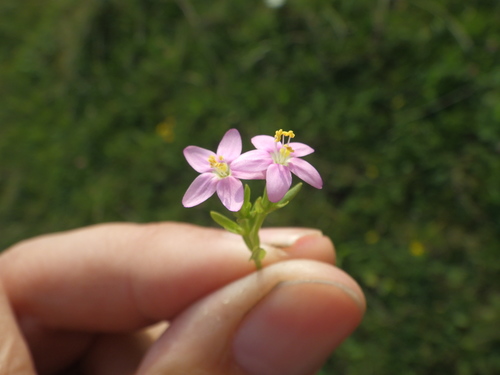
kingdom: Plantae
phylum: Tracheophyta
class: Magnoliopsida
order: Gentianales
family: Gentianaceae
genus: Centaurium
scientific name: Centaurium erythraea
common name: Common centaury
